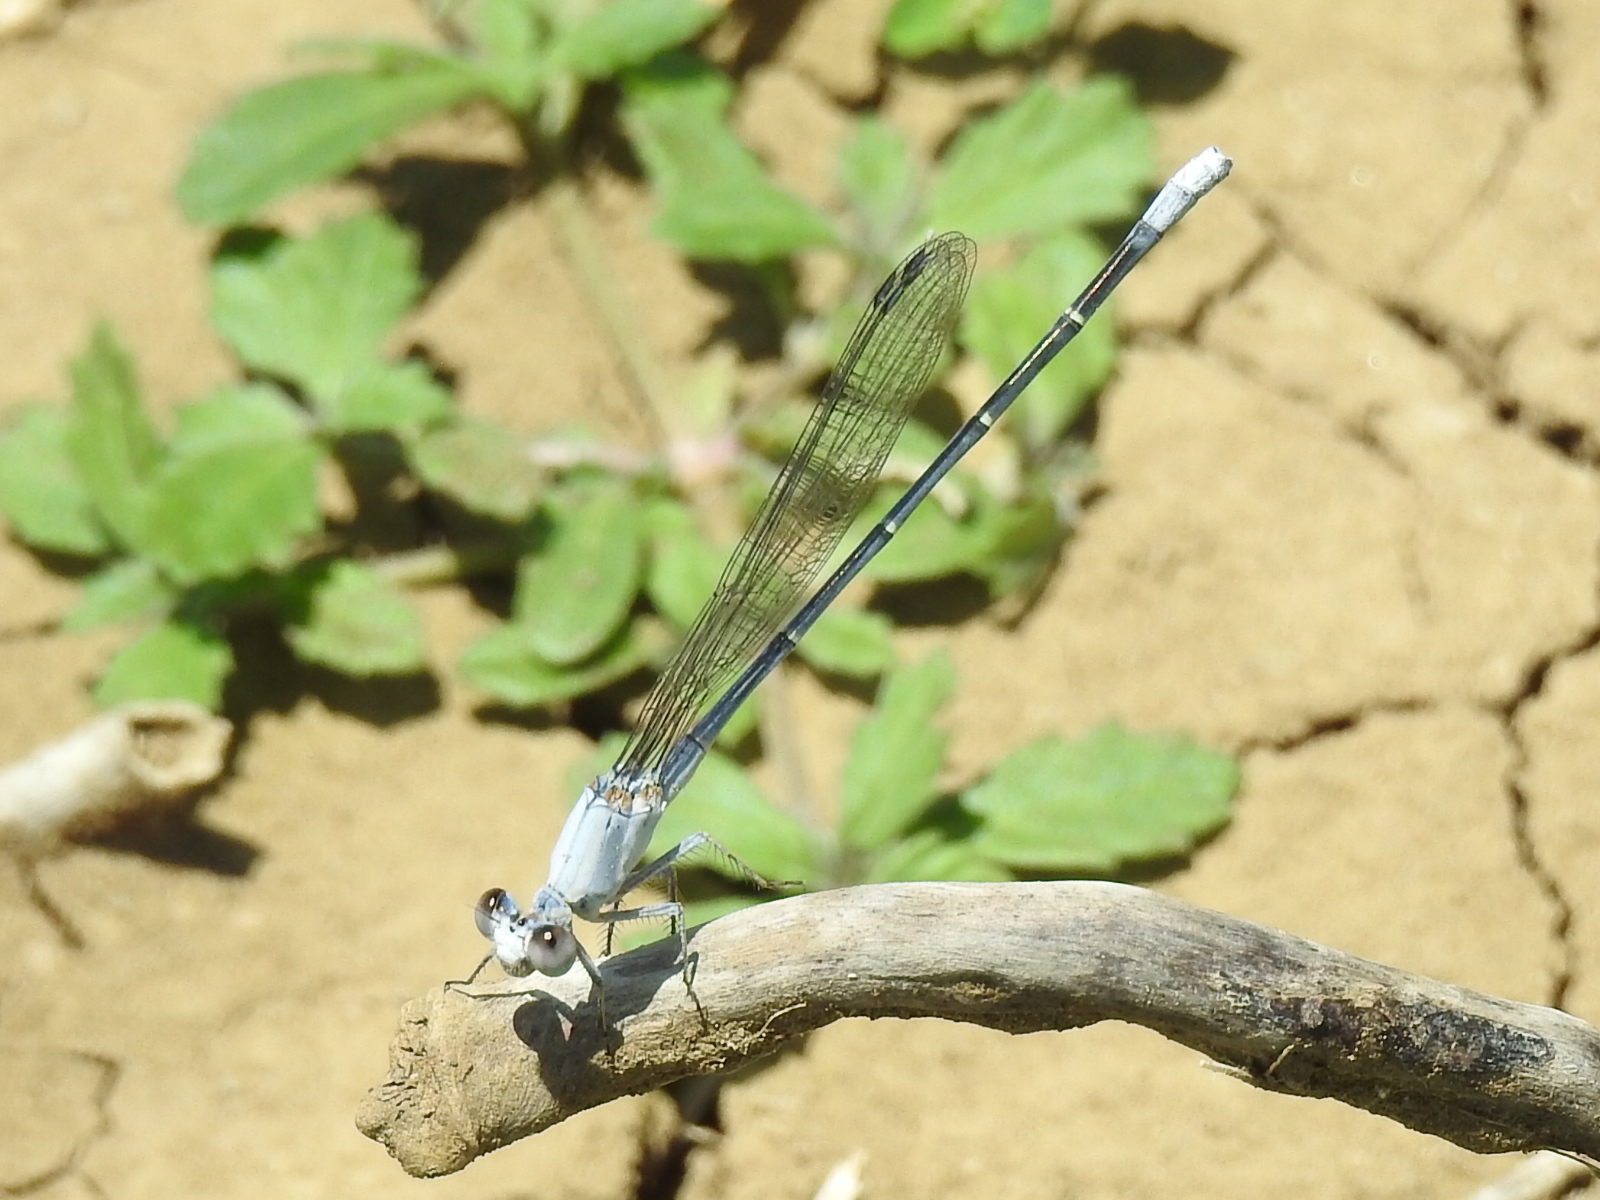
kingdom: Animalia
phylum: Arthropoda
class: Insecta
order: Odonata
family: Coenagrionidae
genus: Argia
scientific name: Argia moesta
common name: Powdered dancer
